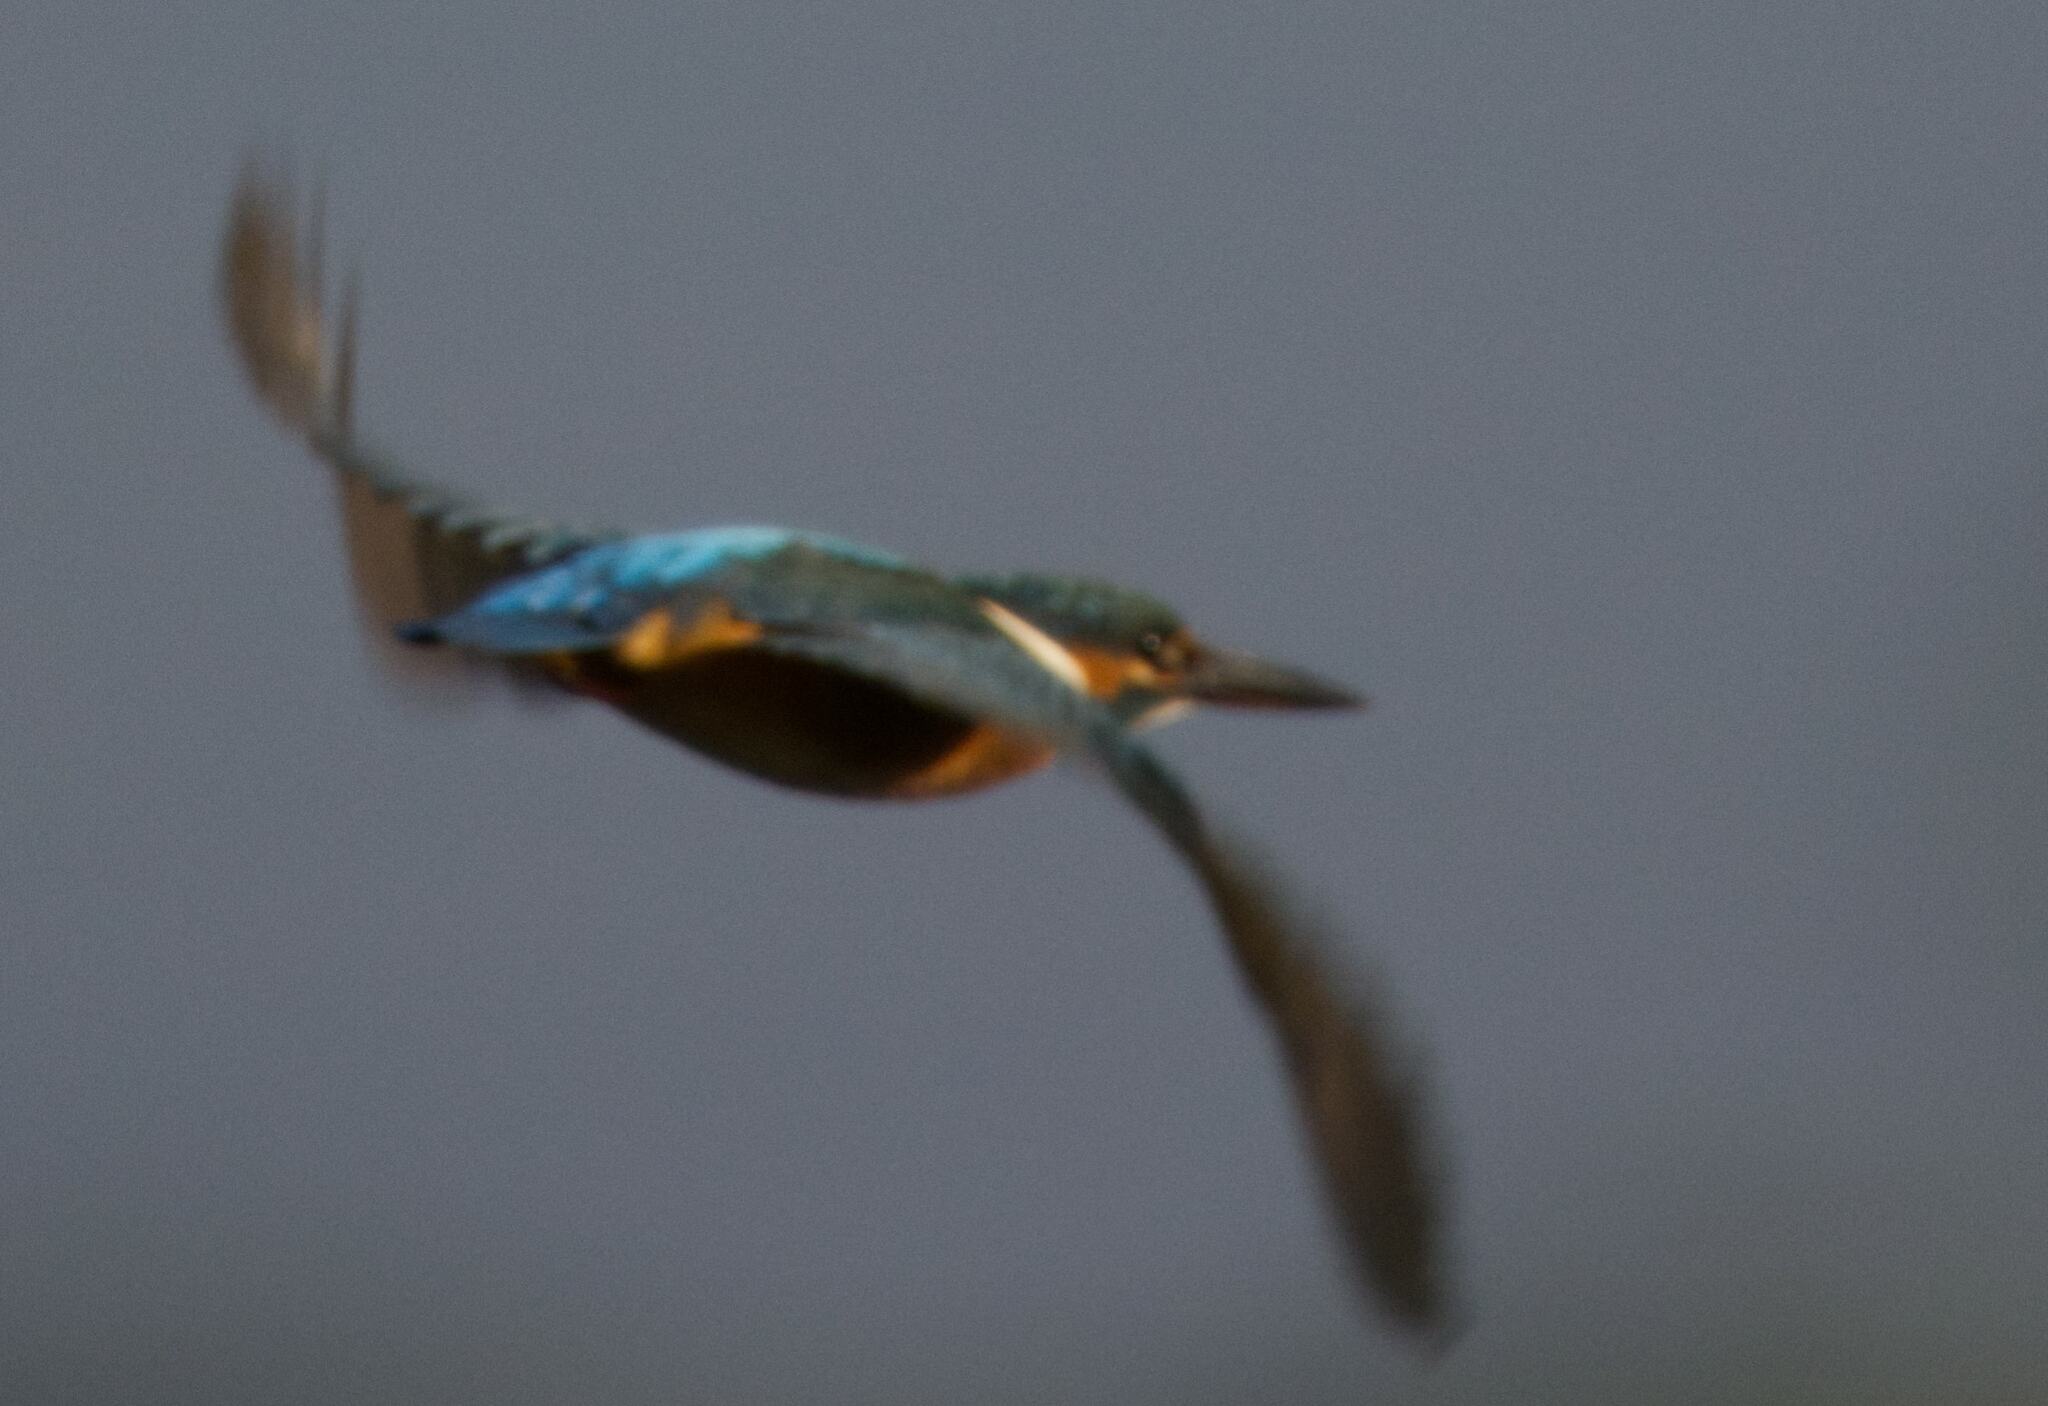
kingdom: Animalia
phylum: Chordata
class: Aves
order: Coraciiformes
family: Alcedinidae
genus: Alcedo
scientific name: Alcedo atthis
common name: Common kingfisher
